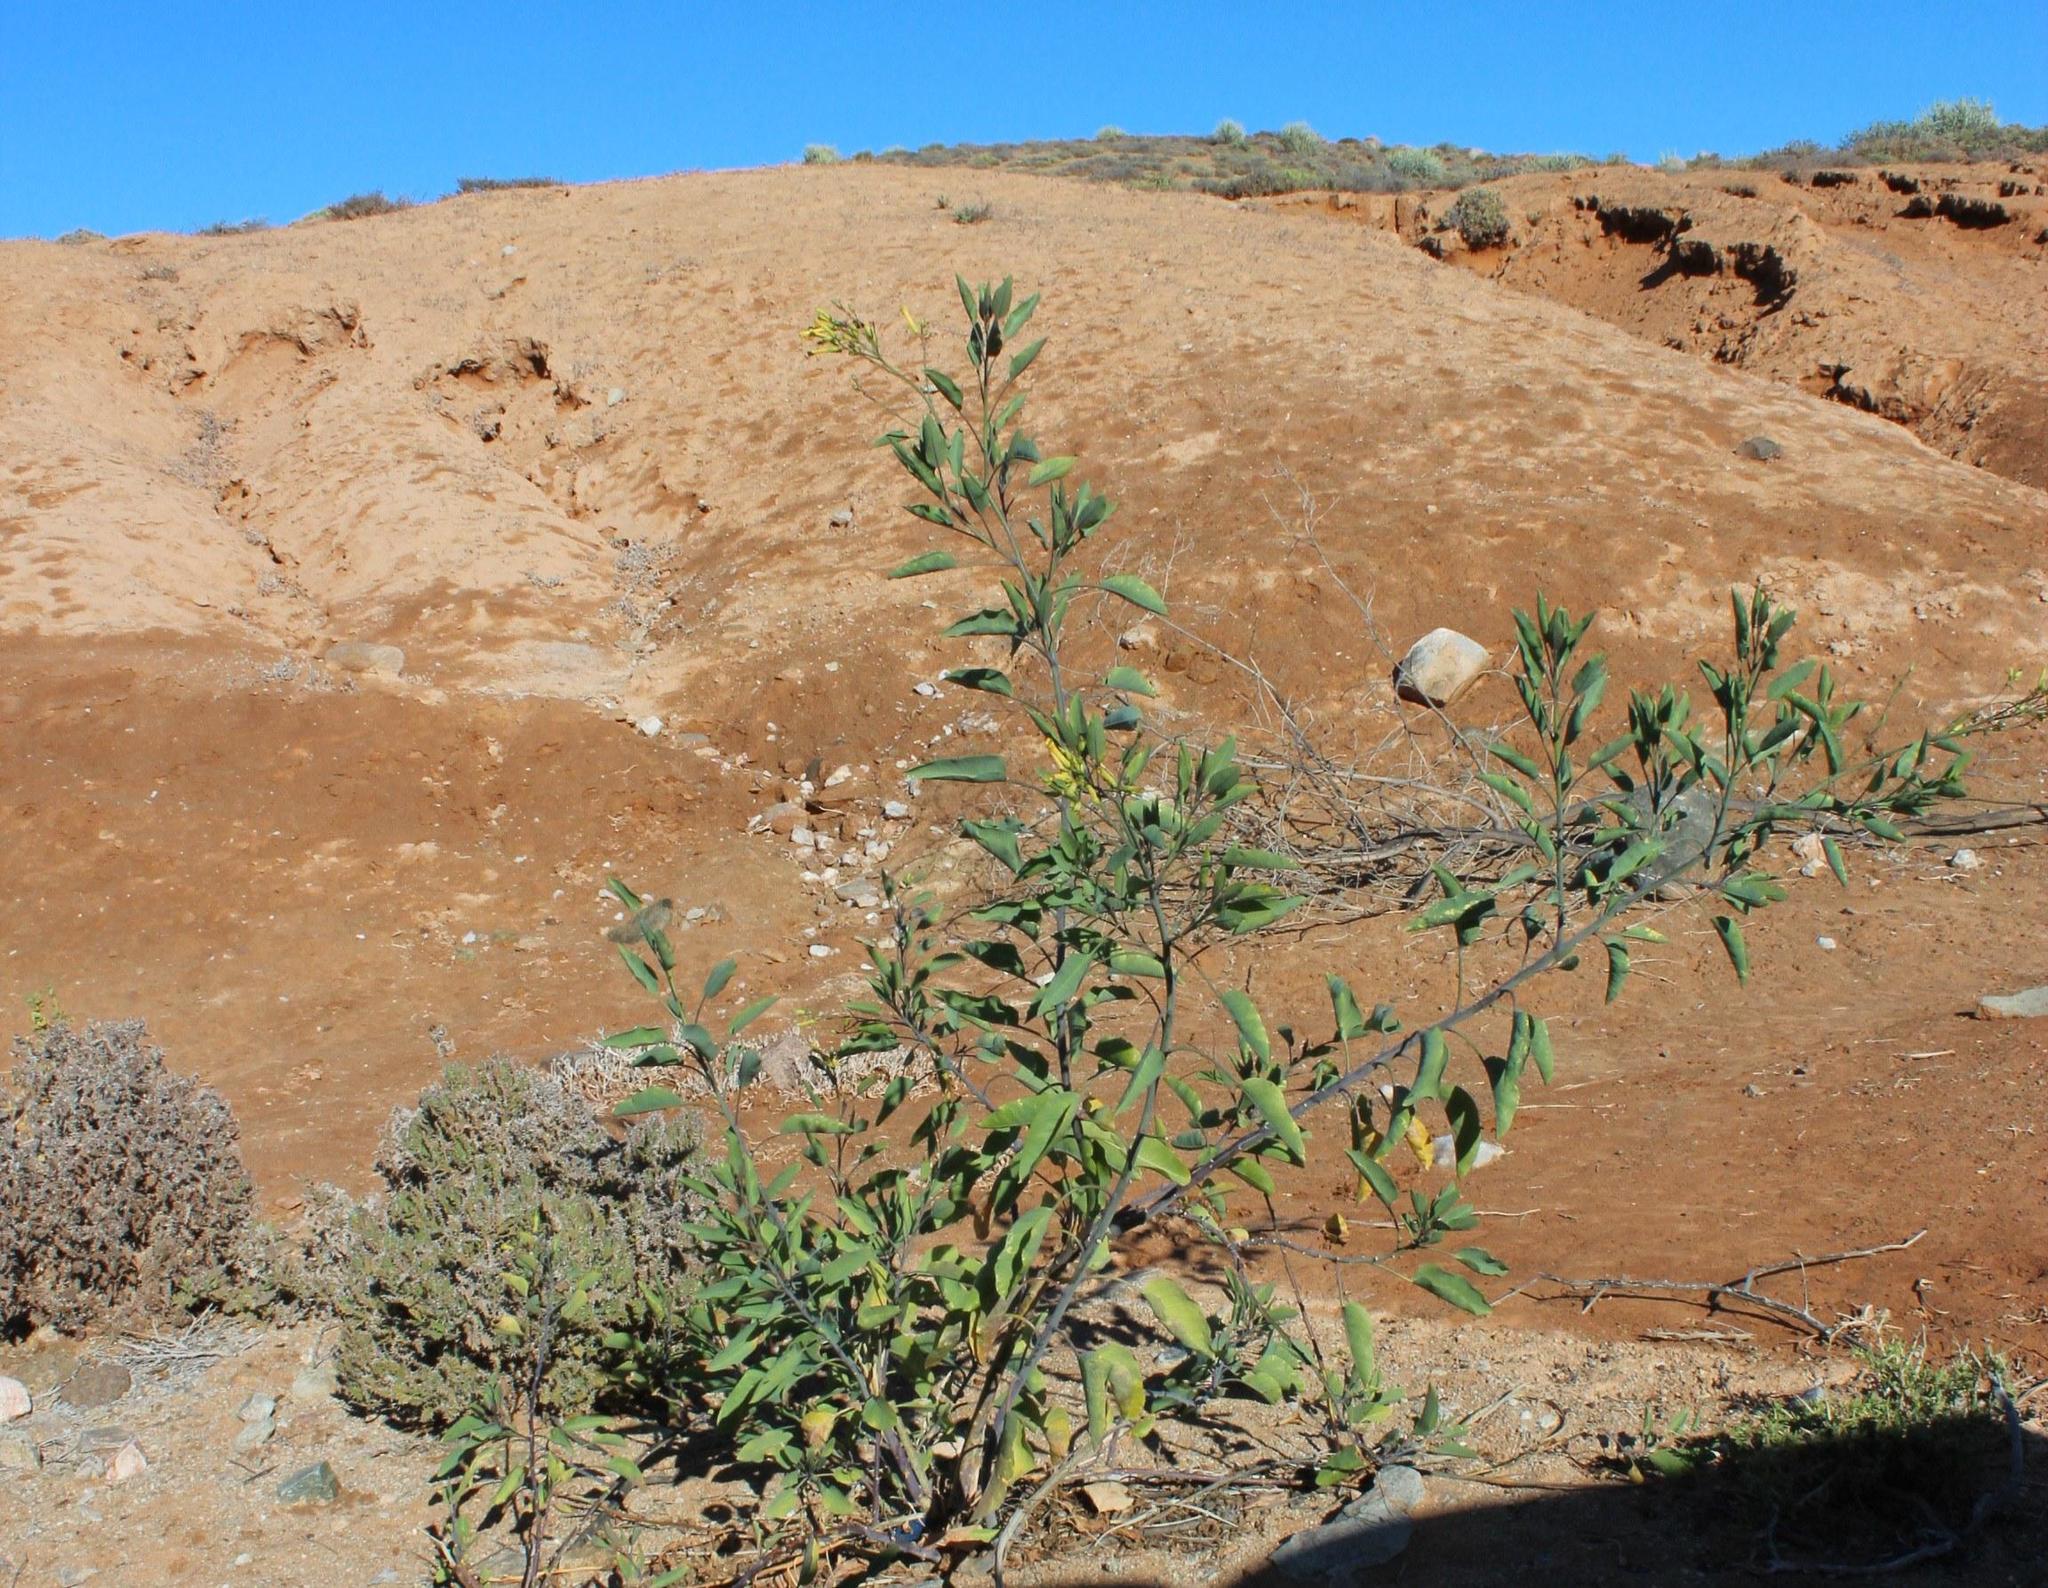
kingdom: Plantae
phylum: Tracheophyta
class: Magnoliopsida
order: Solanales
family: Solanaceae
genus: Nicotiana
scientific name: Nicotiana glauca
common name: Tree tobacco
